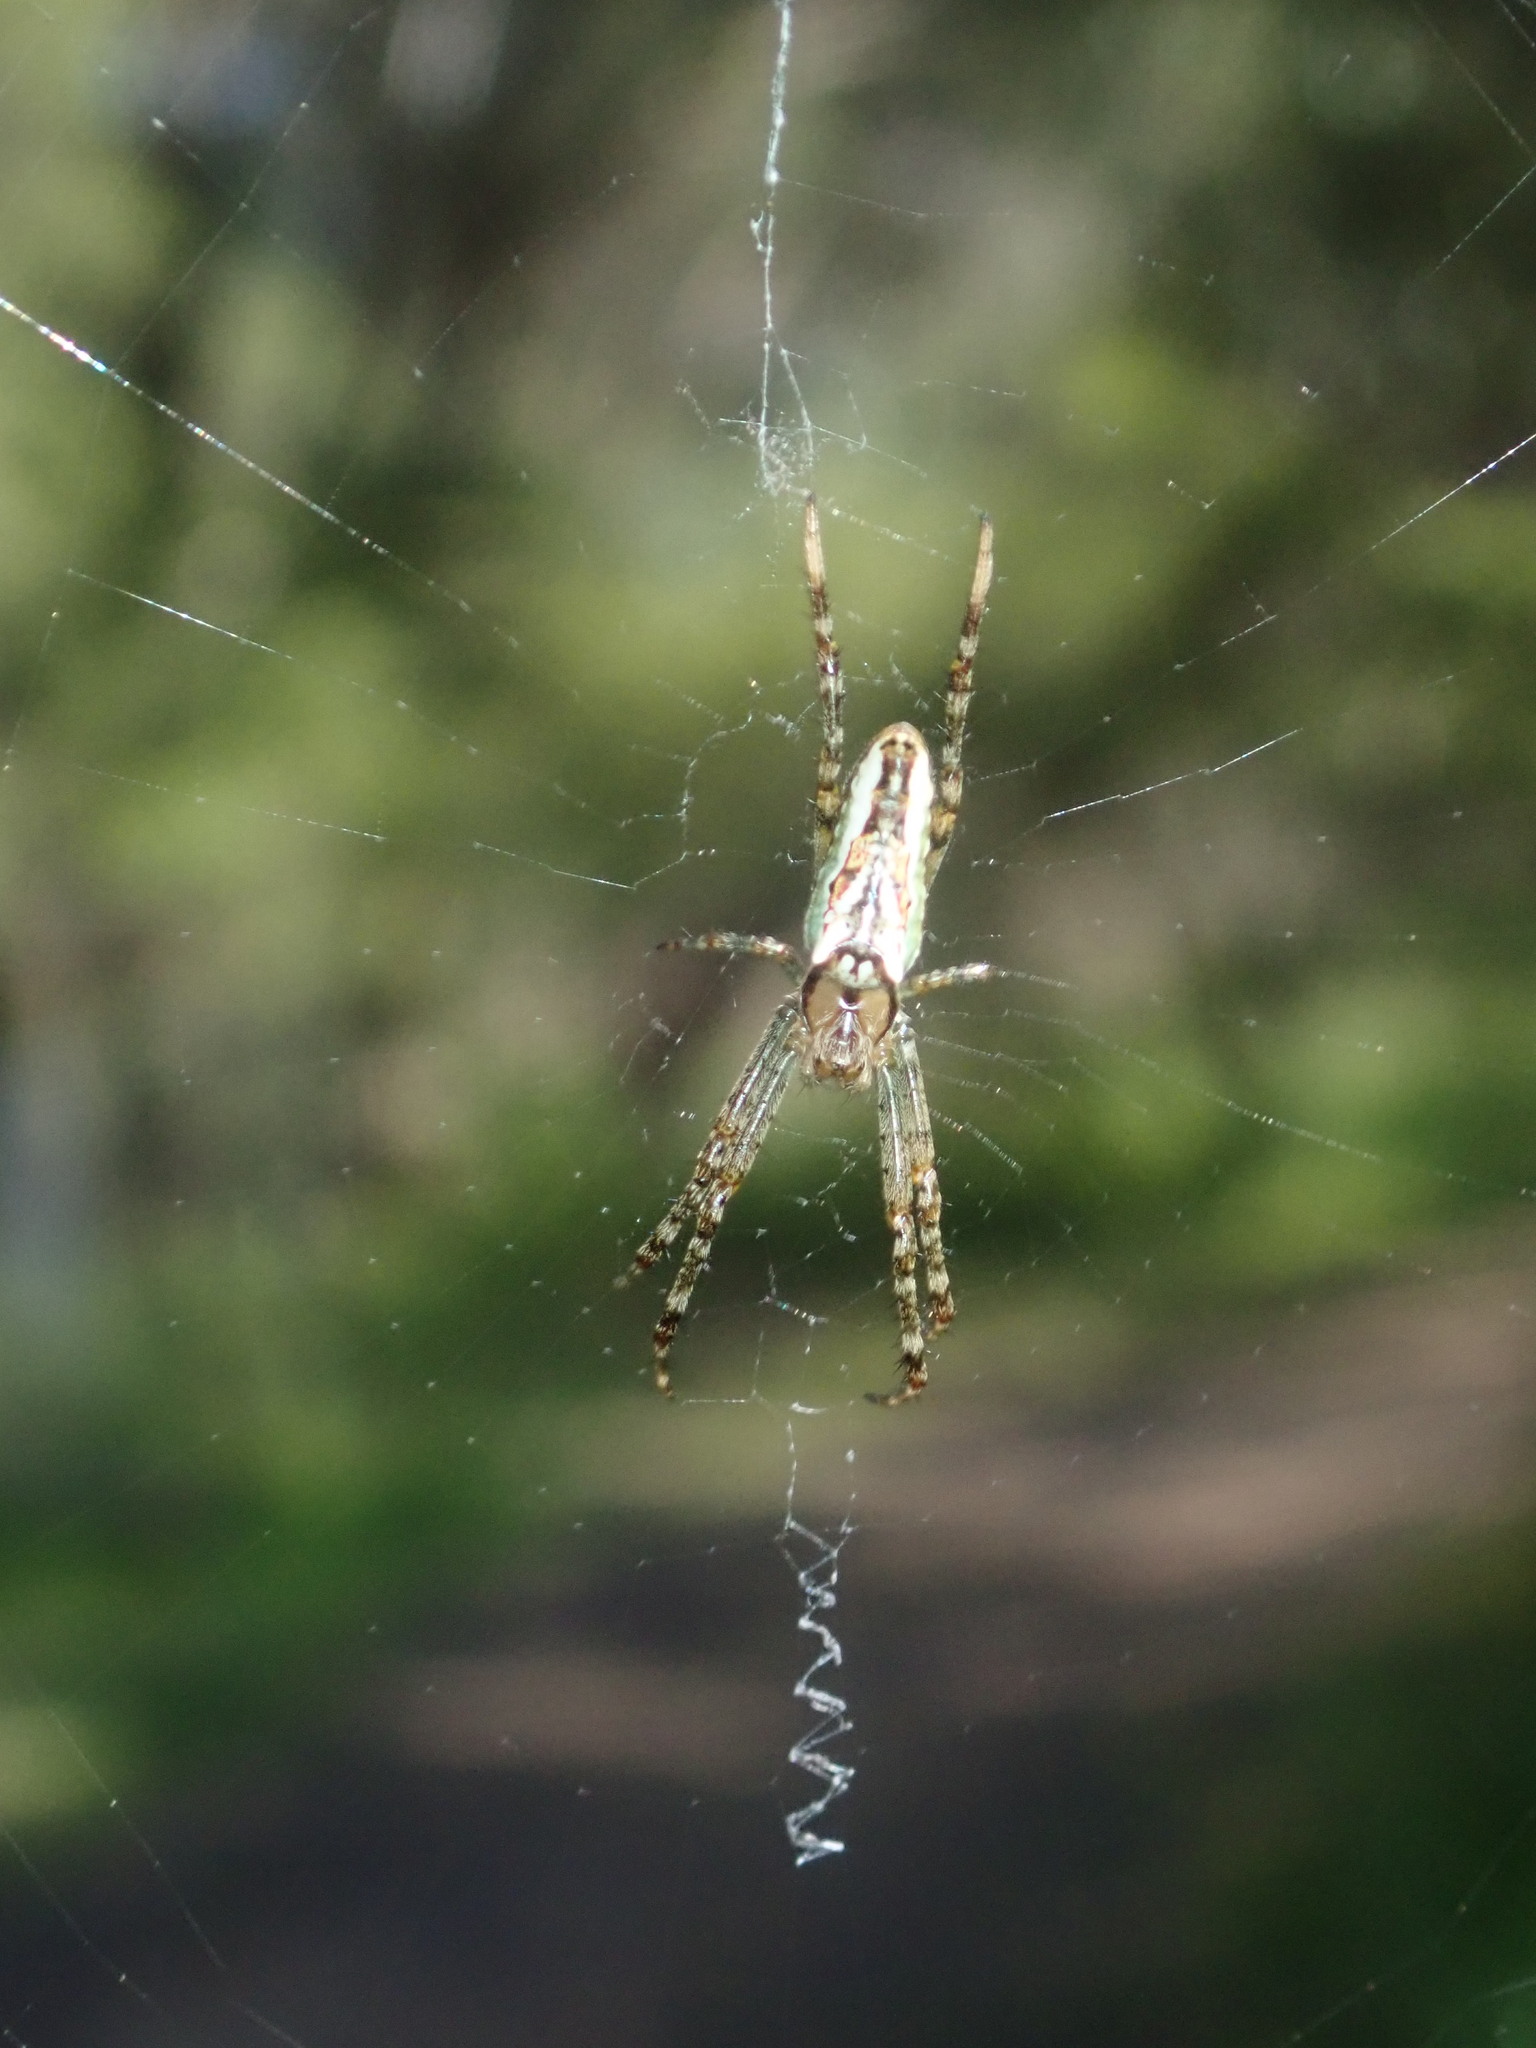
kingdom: Animalia
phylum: Arthropoda
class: Arachnida
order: Araneae
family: Araneidae
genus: Plebs
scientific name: Plebs bradleyi
